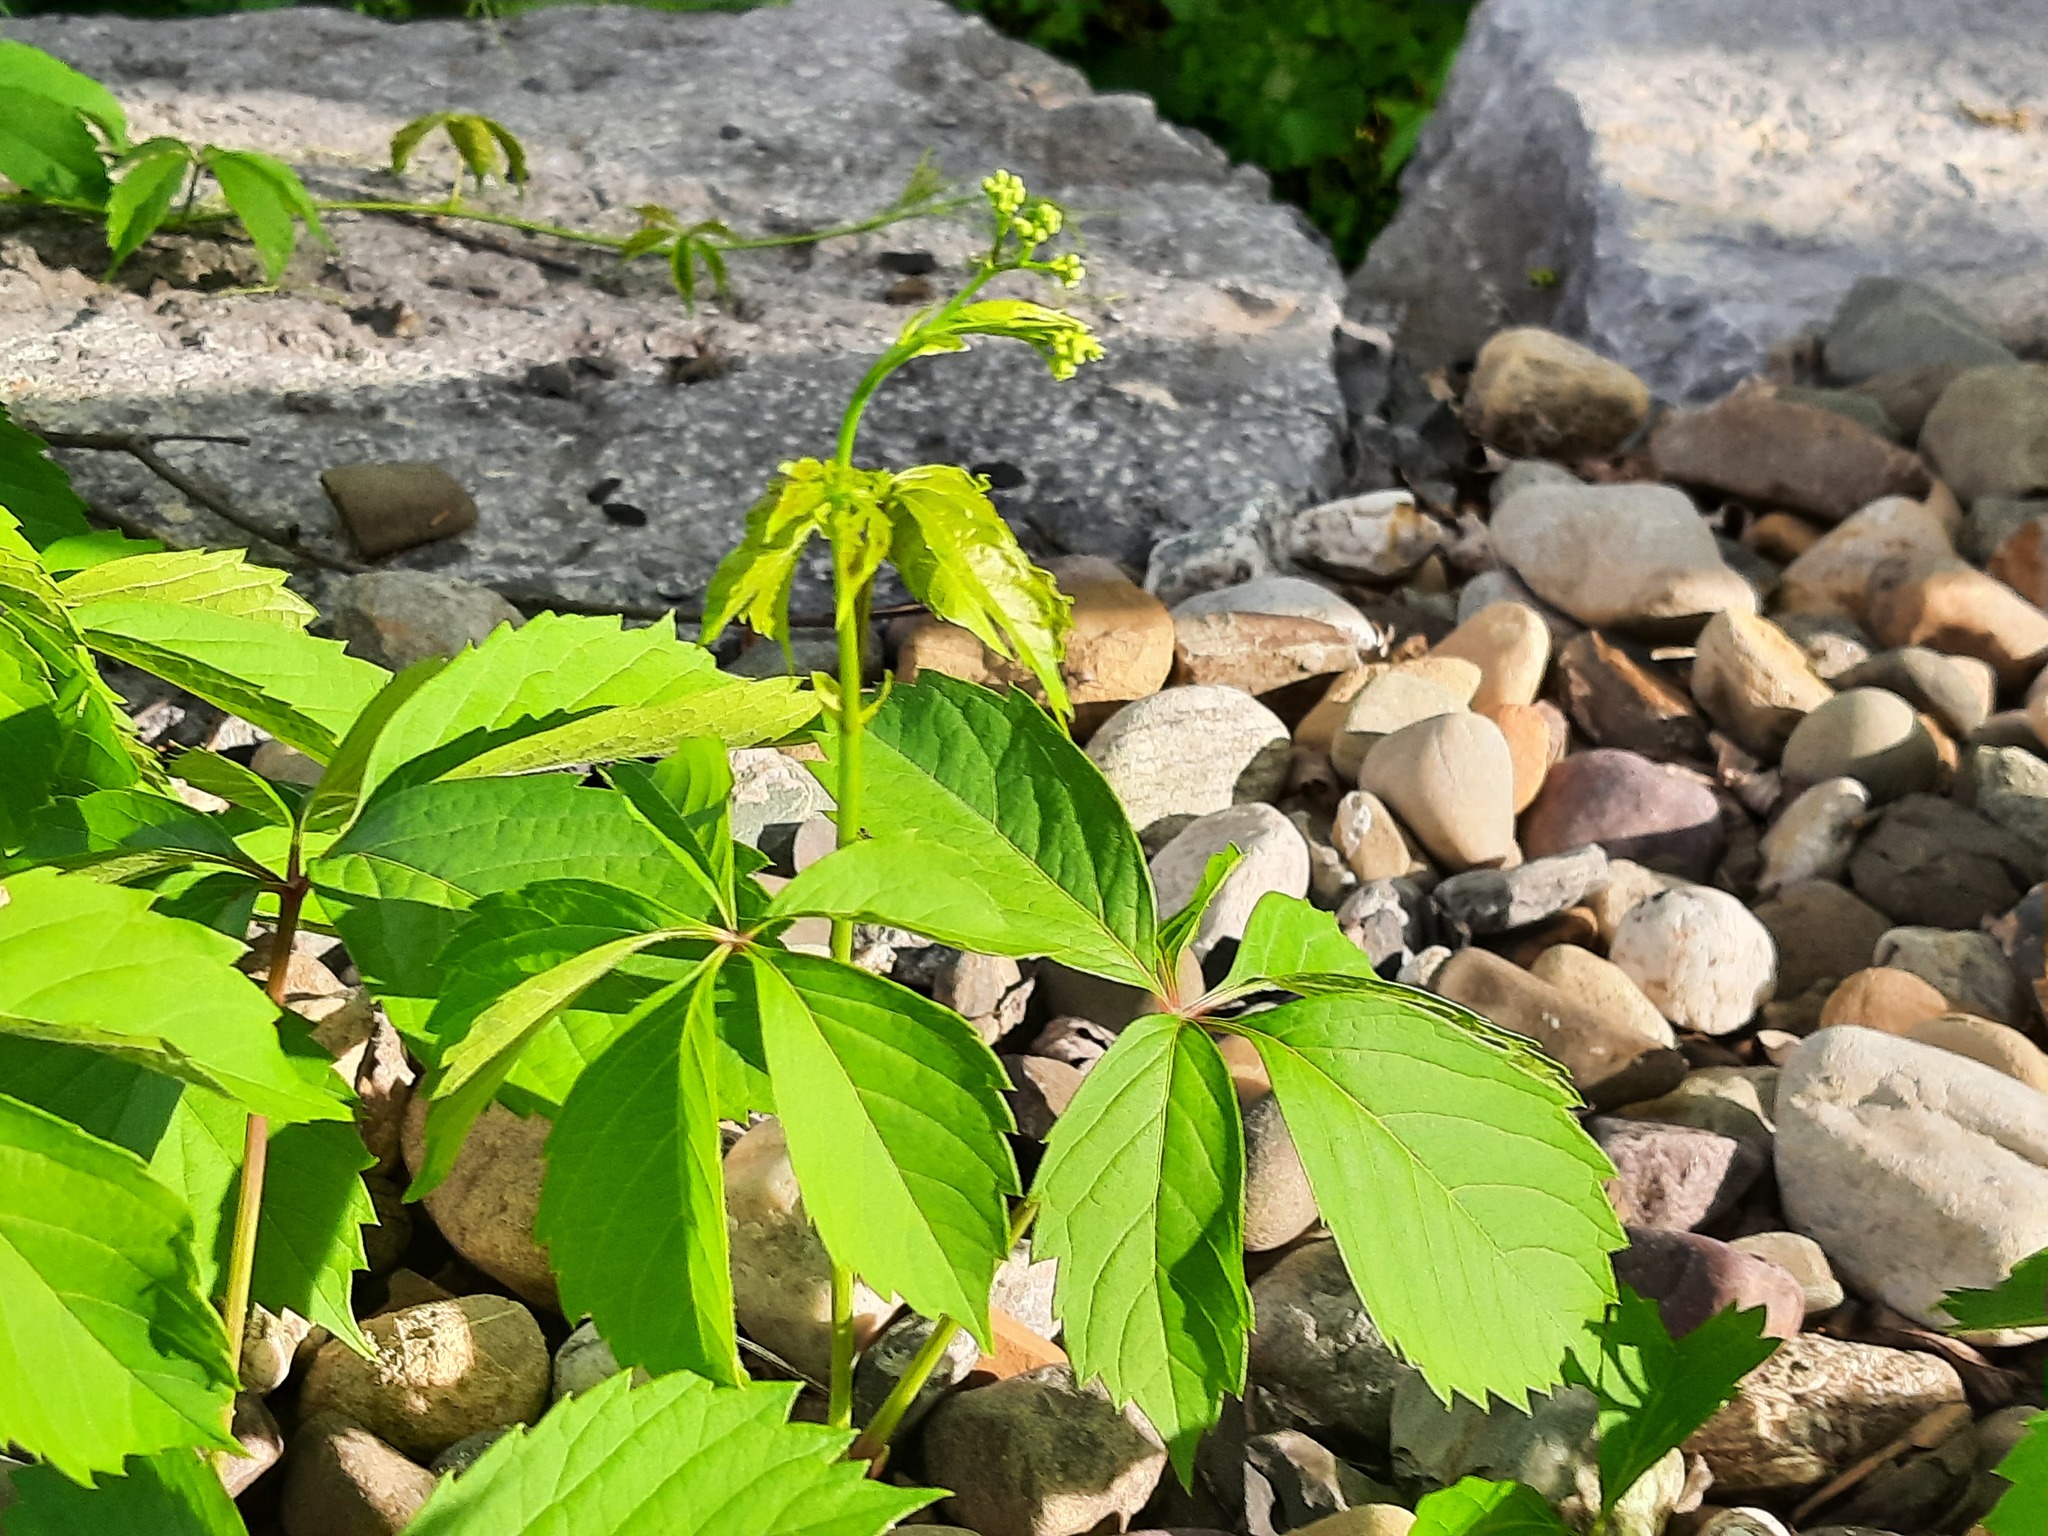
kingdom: Plantae
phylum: Tracheophyta
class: Magnoliopsida
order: Vitales
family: Vitaceae
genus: Parthenocissus
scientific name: Parthenocissus quinquefolia
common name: Virginia-creeper
